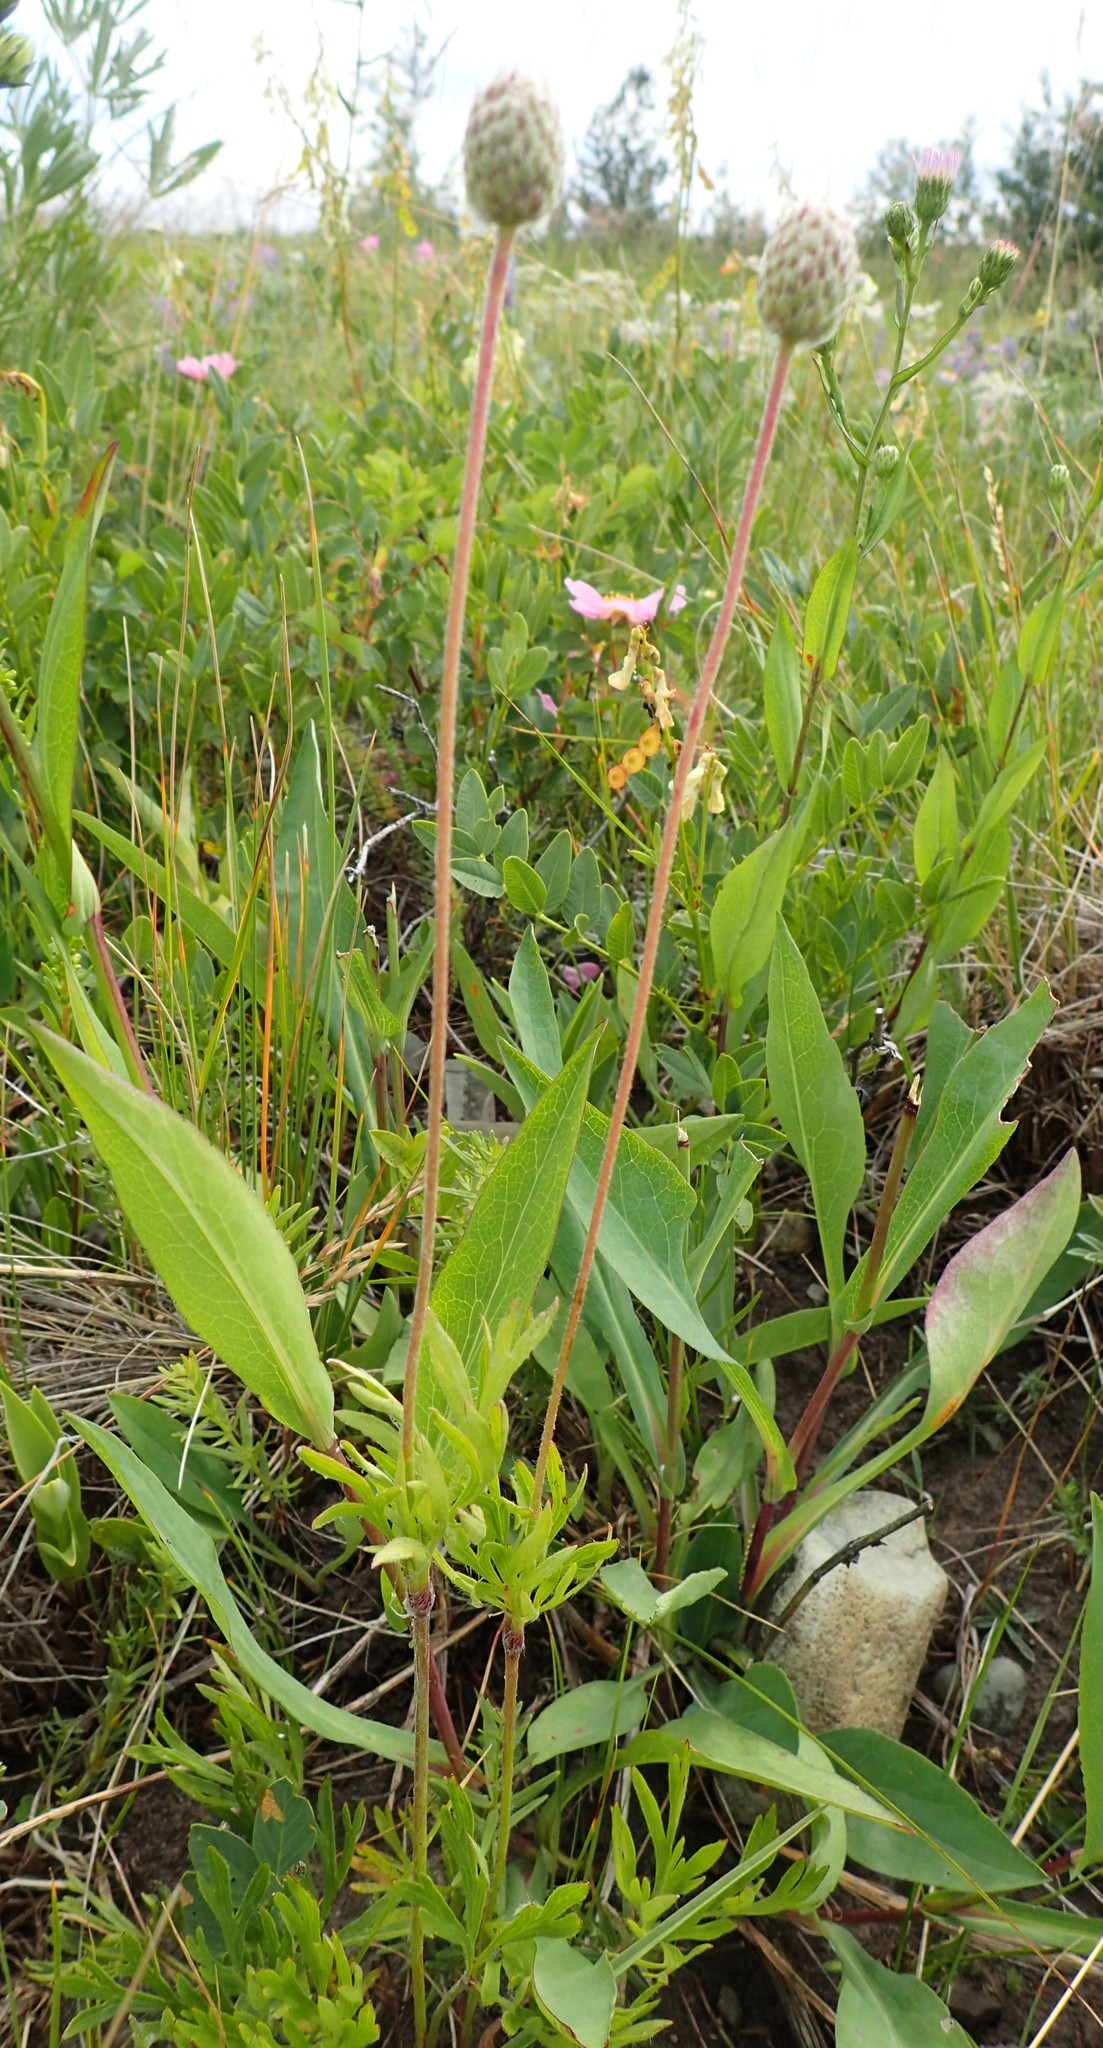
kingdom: Plantae
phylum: Tracheophyta
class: Magnoliopsida
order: Ranunculales
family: Ranunculaceae
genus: Anemone
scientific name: Anemone multifida
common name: Bird's-foot anemone
